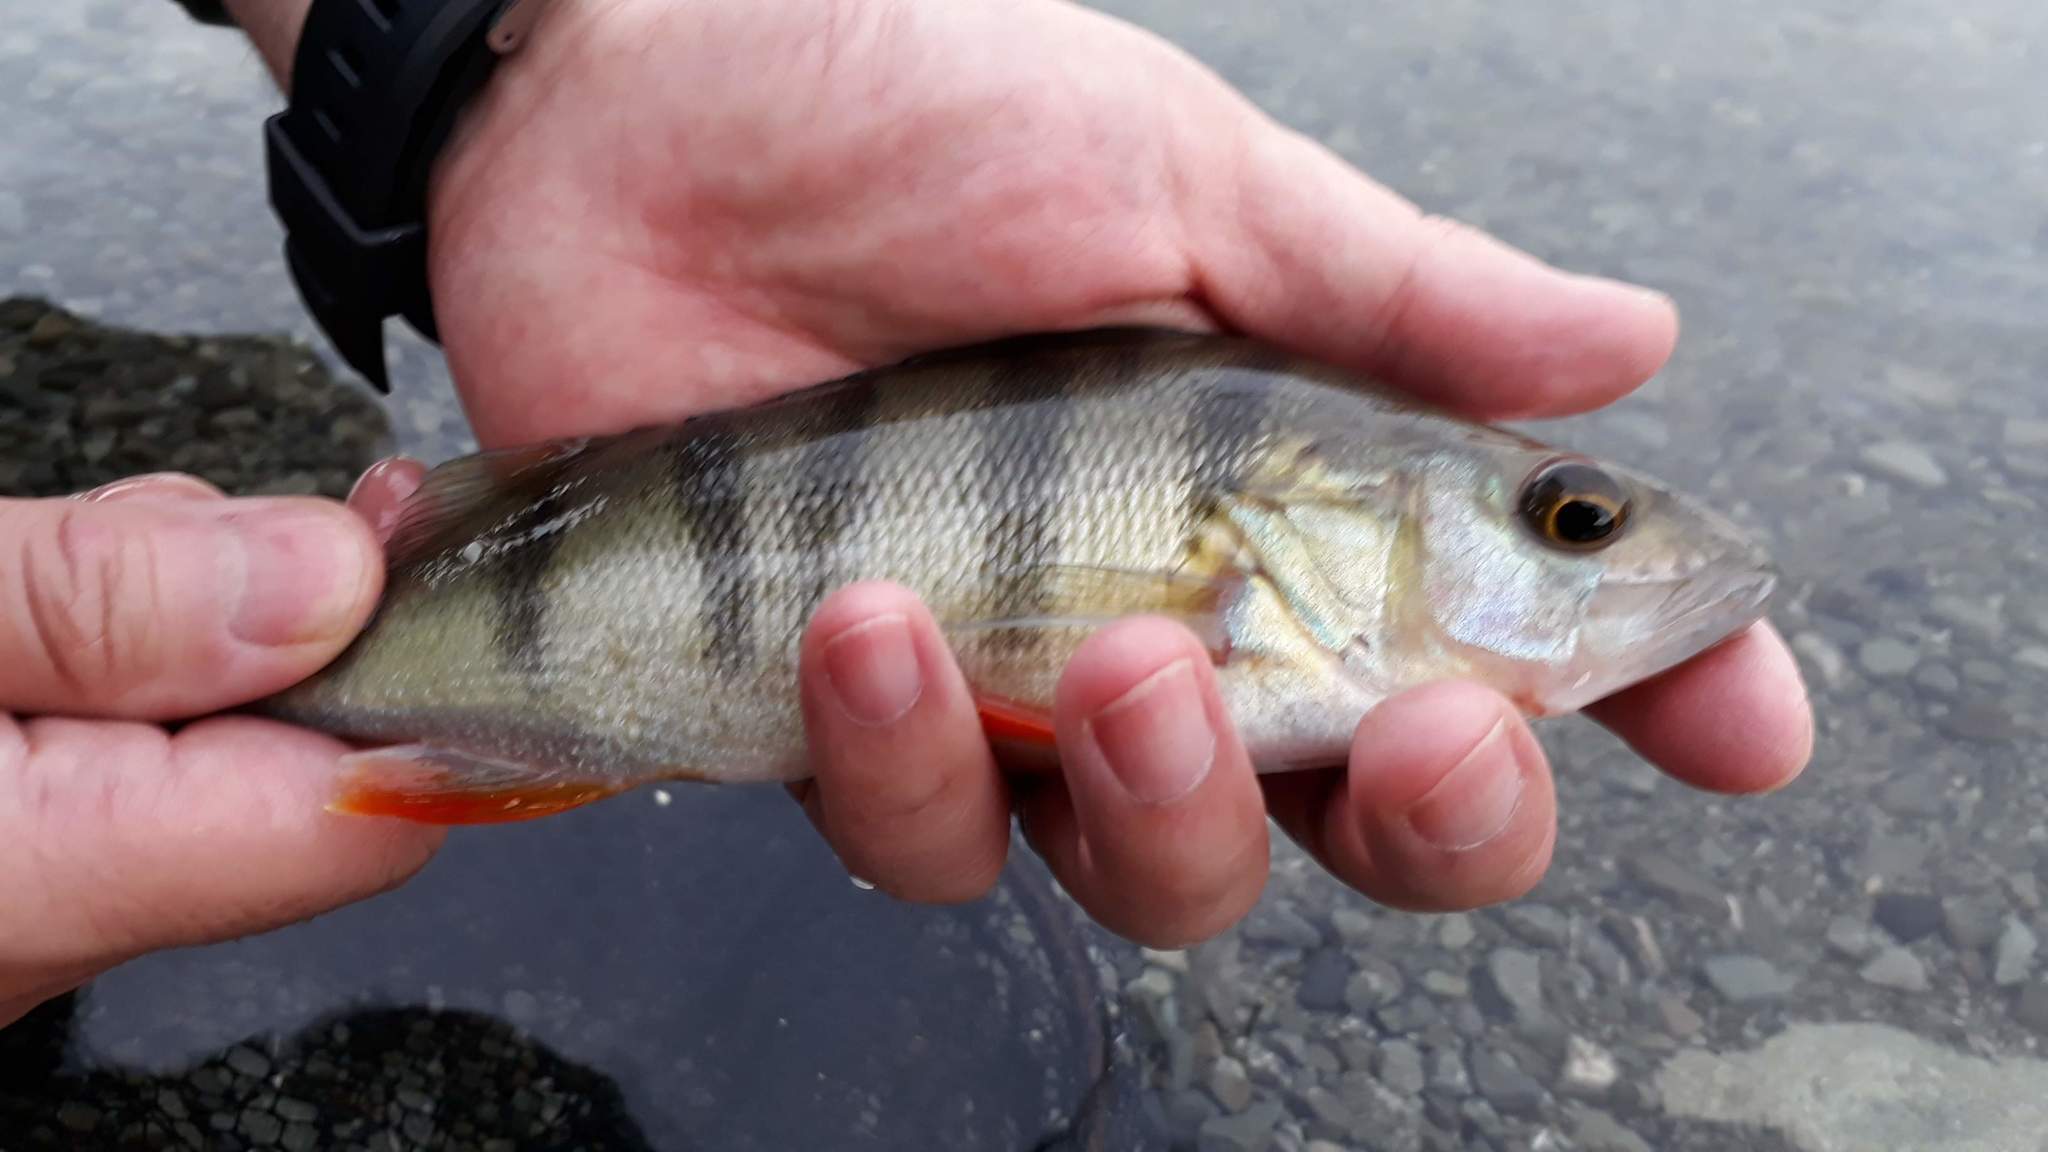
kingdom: Animalia
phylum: Chordata
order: Perciformes
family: Percidae
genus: Perca
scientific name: Perca fluviatilis
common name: Perch
